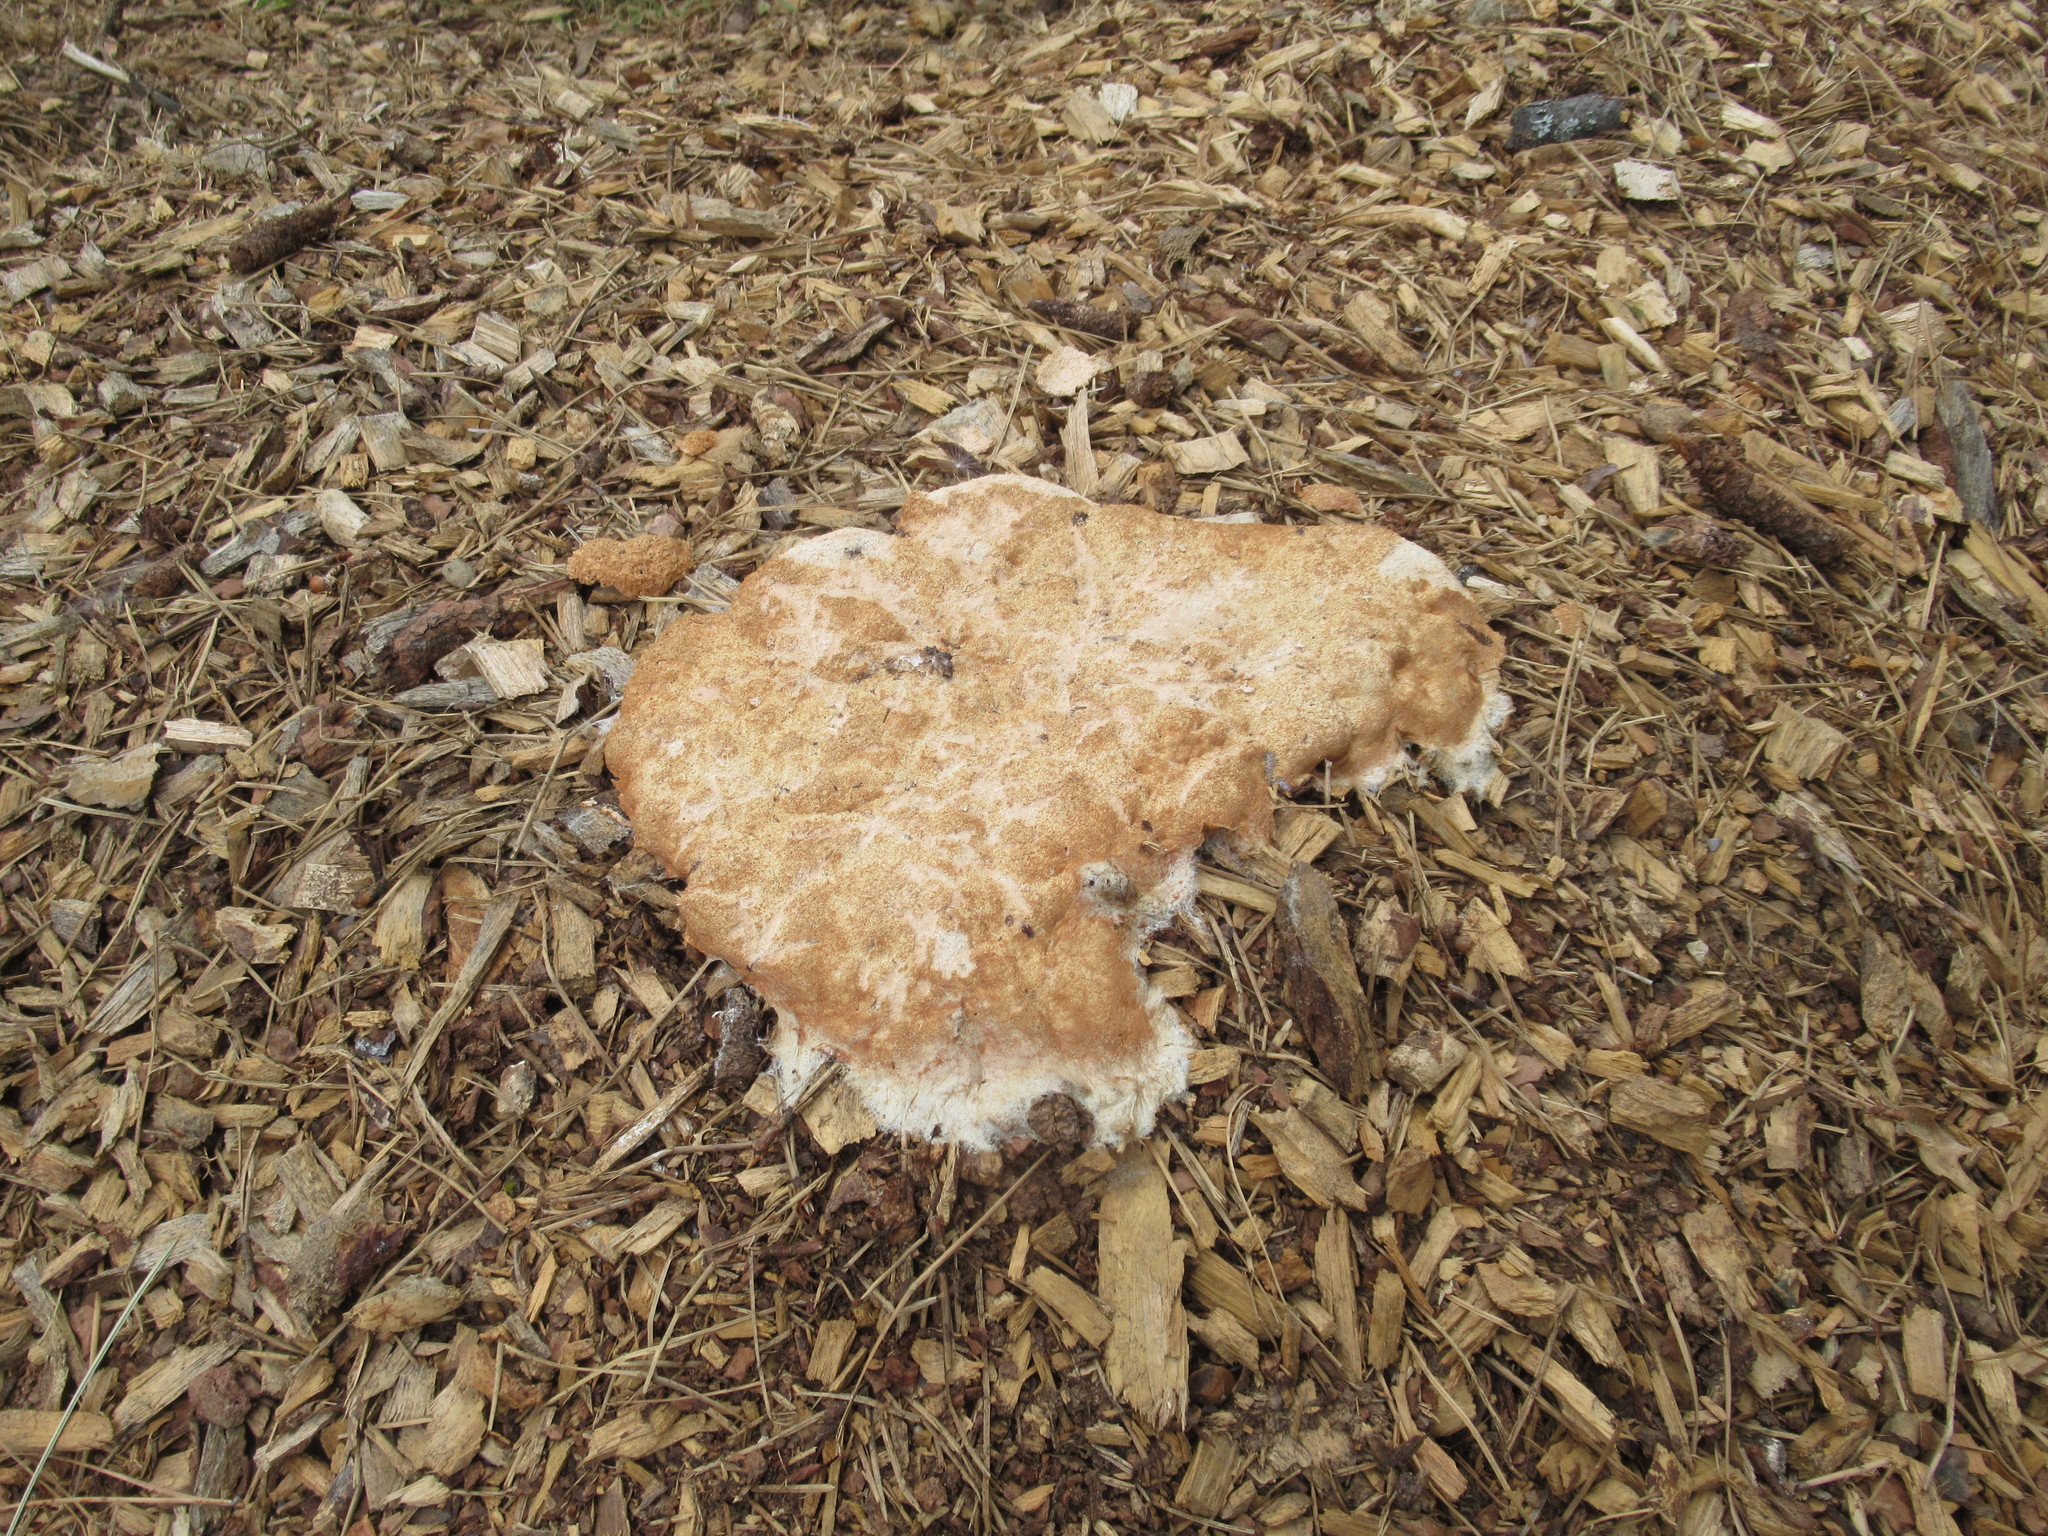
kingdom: Protozoa
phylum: Mycetozoa
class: Myxomycetes
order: Physarales
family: Physaraceae
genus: Fuligo
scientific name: Fuligo septica
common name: Dog vomit slime mold
